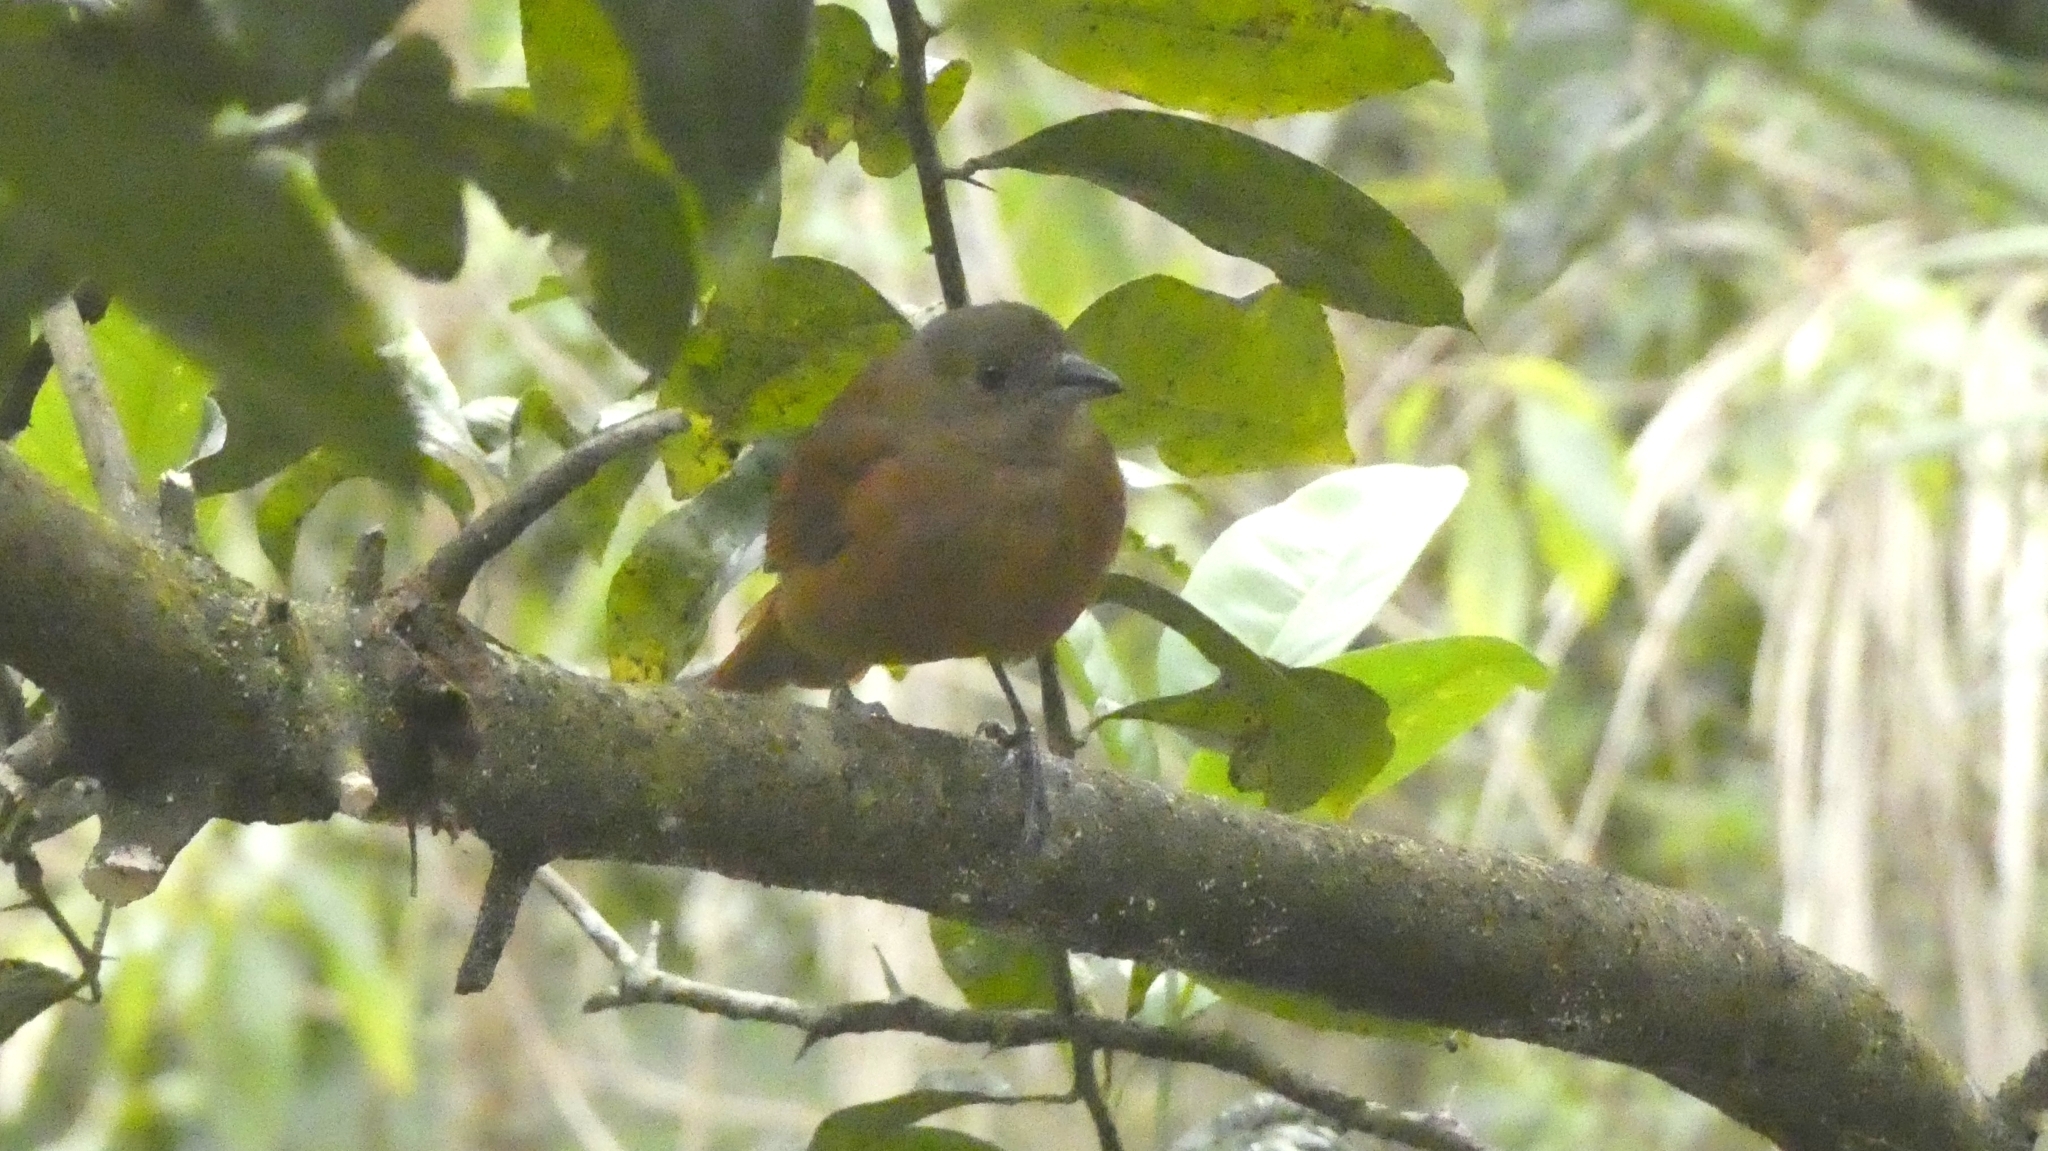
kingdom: Animalia
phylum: Chordata
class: Aves
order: Passeriformes
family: Thraupidae
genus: Tachyphonus
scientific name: Tachyphonus coronatus
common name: Ruby-crowned tanager
